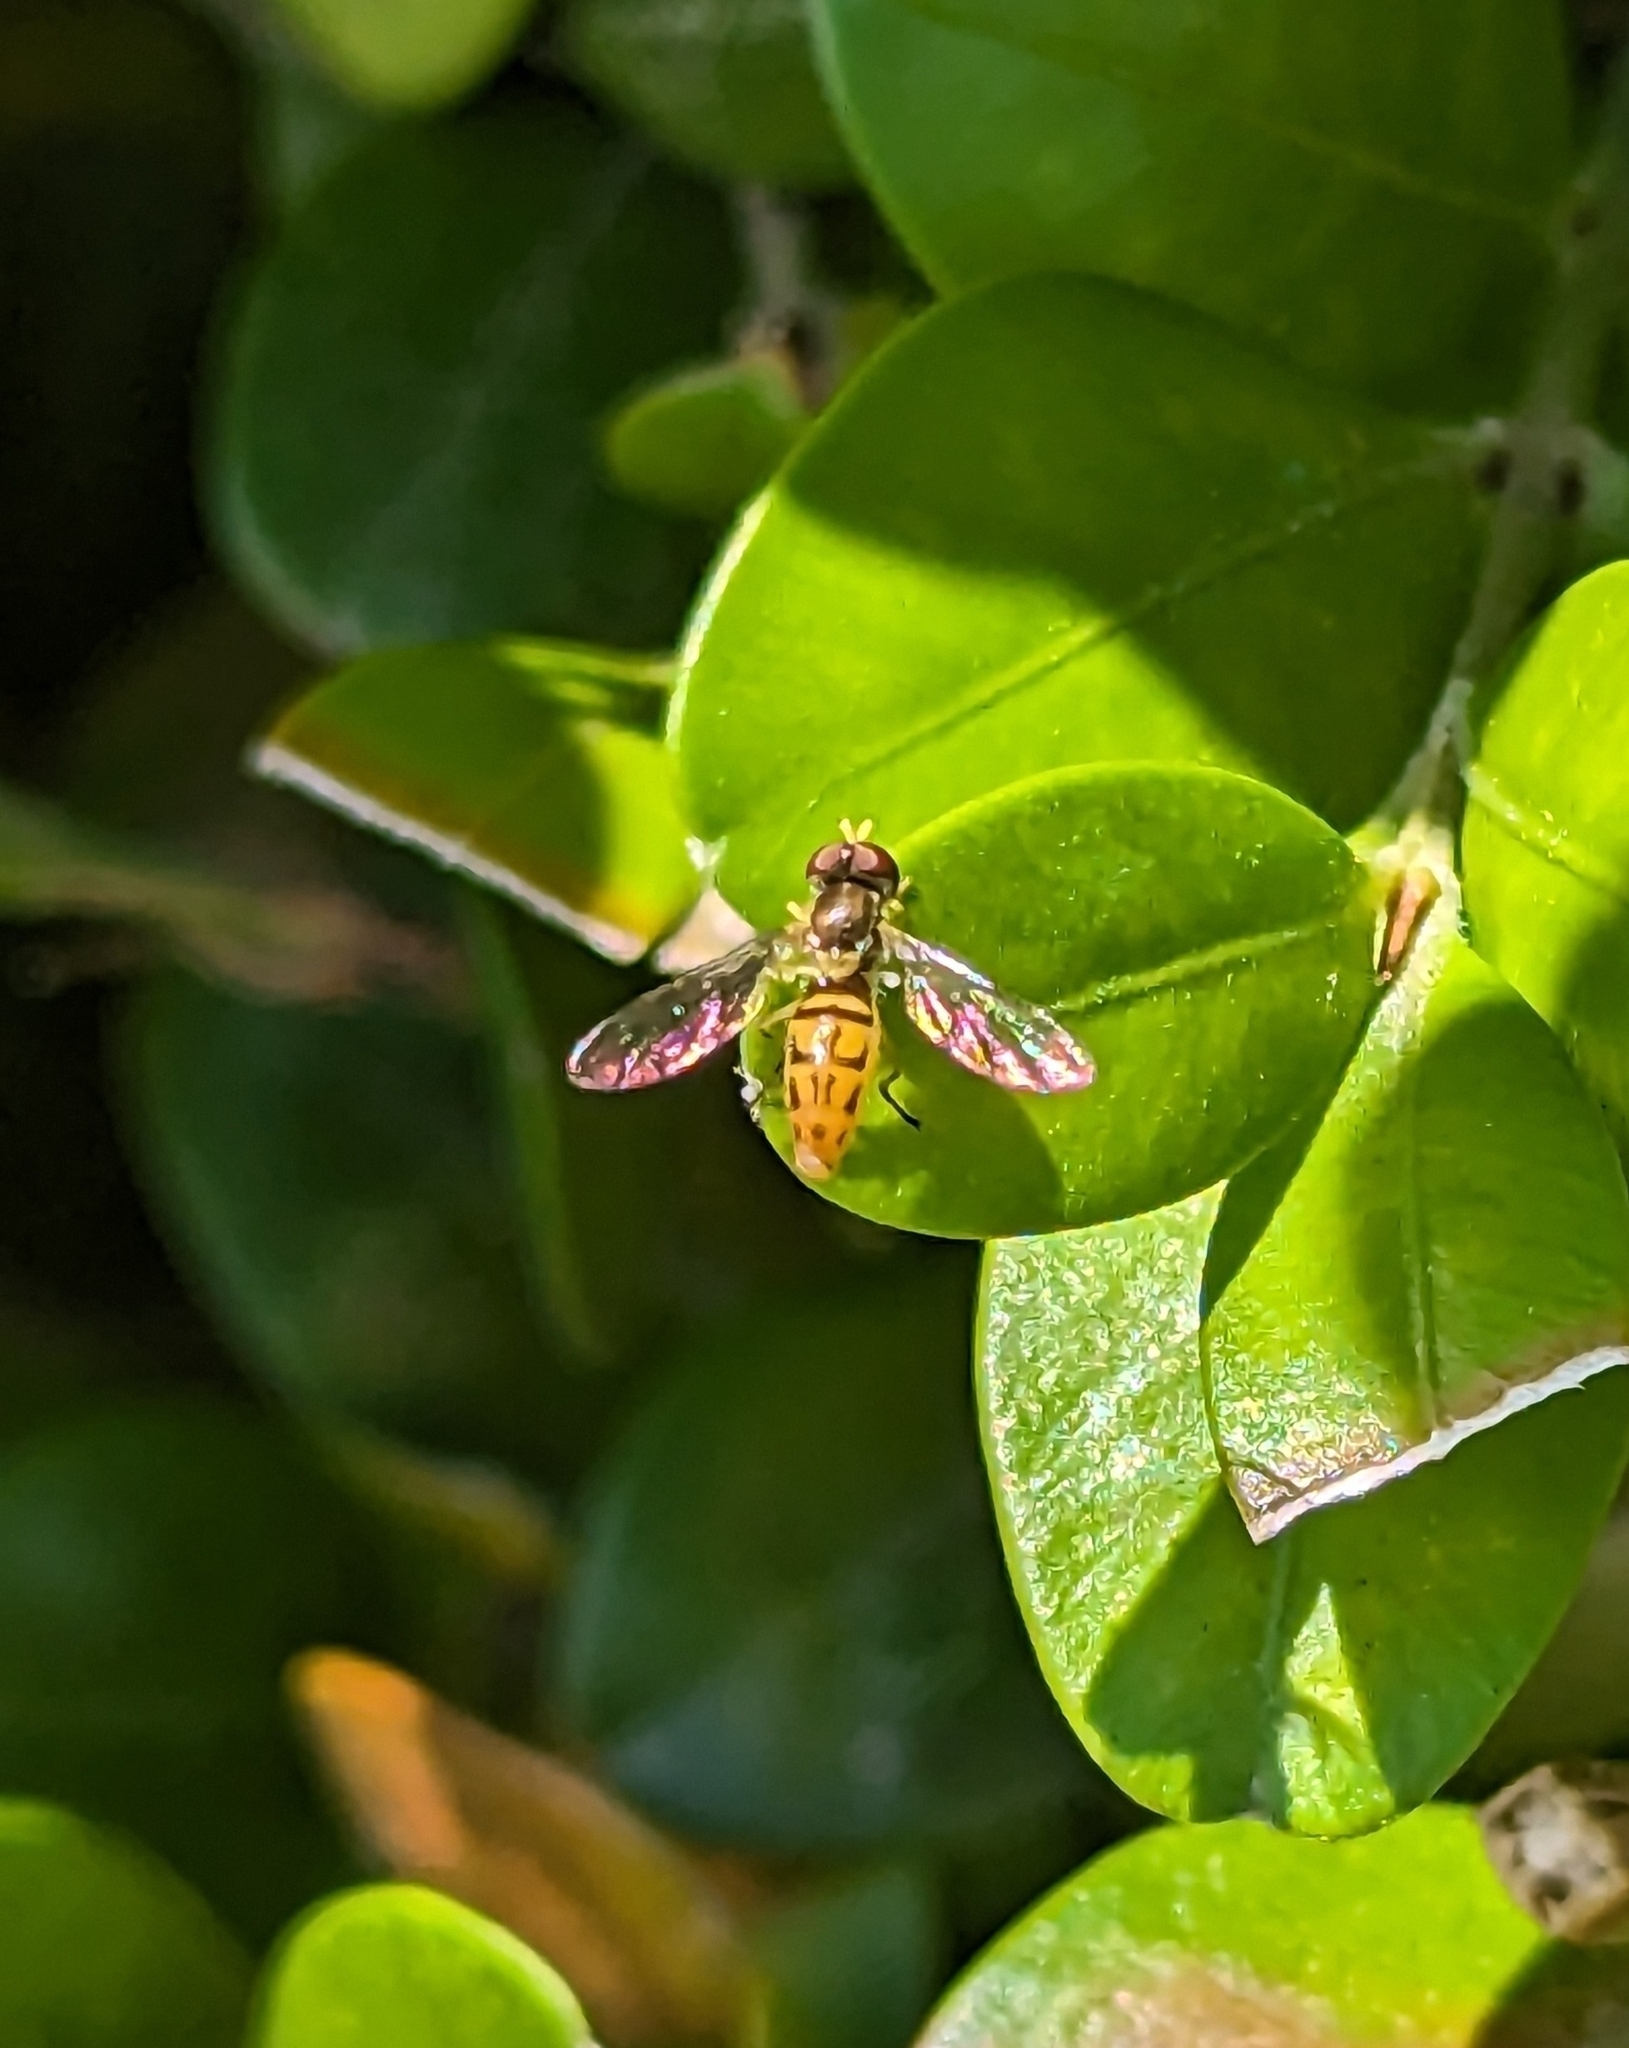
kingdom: Animalia
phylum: Arthropoda
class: Insecta
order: Diptera
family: Syrphidae
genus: Toxomerus
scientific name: Toxomerus marginatus
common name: Syrphid fly
